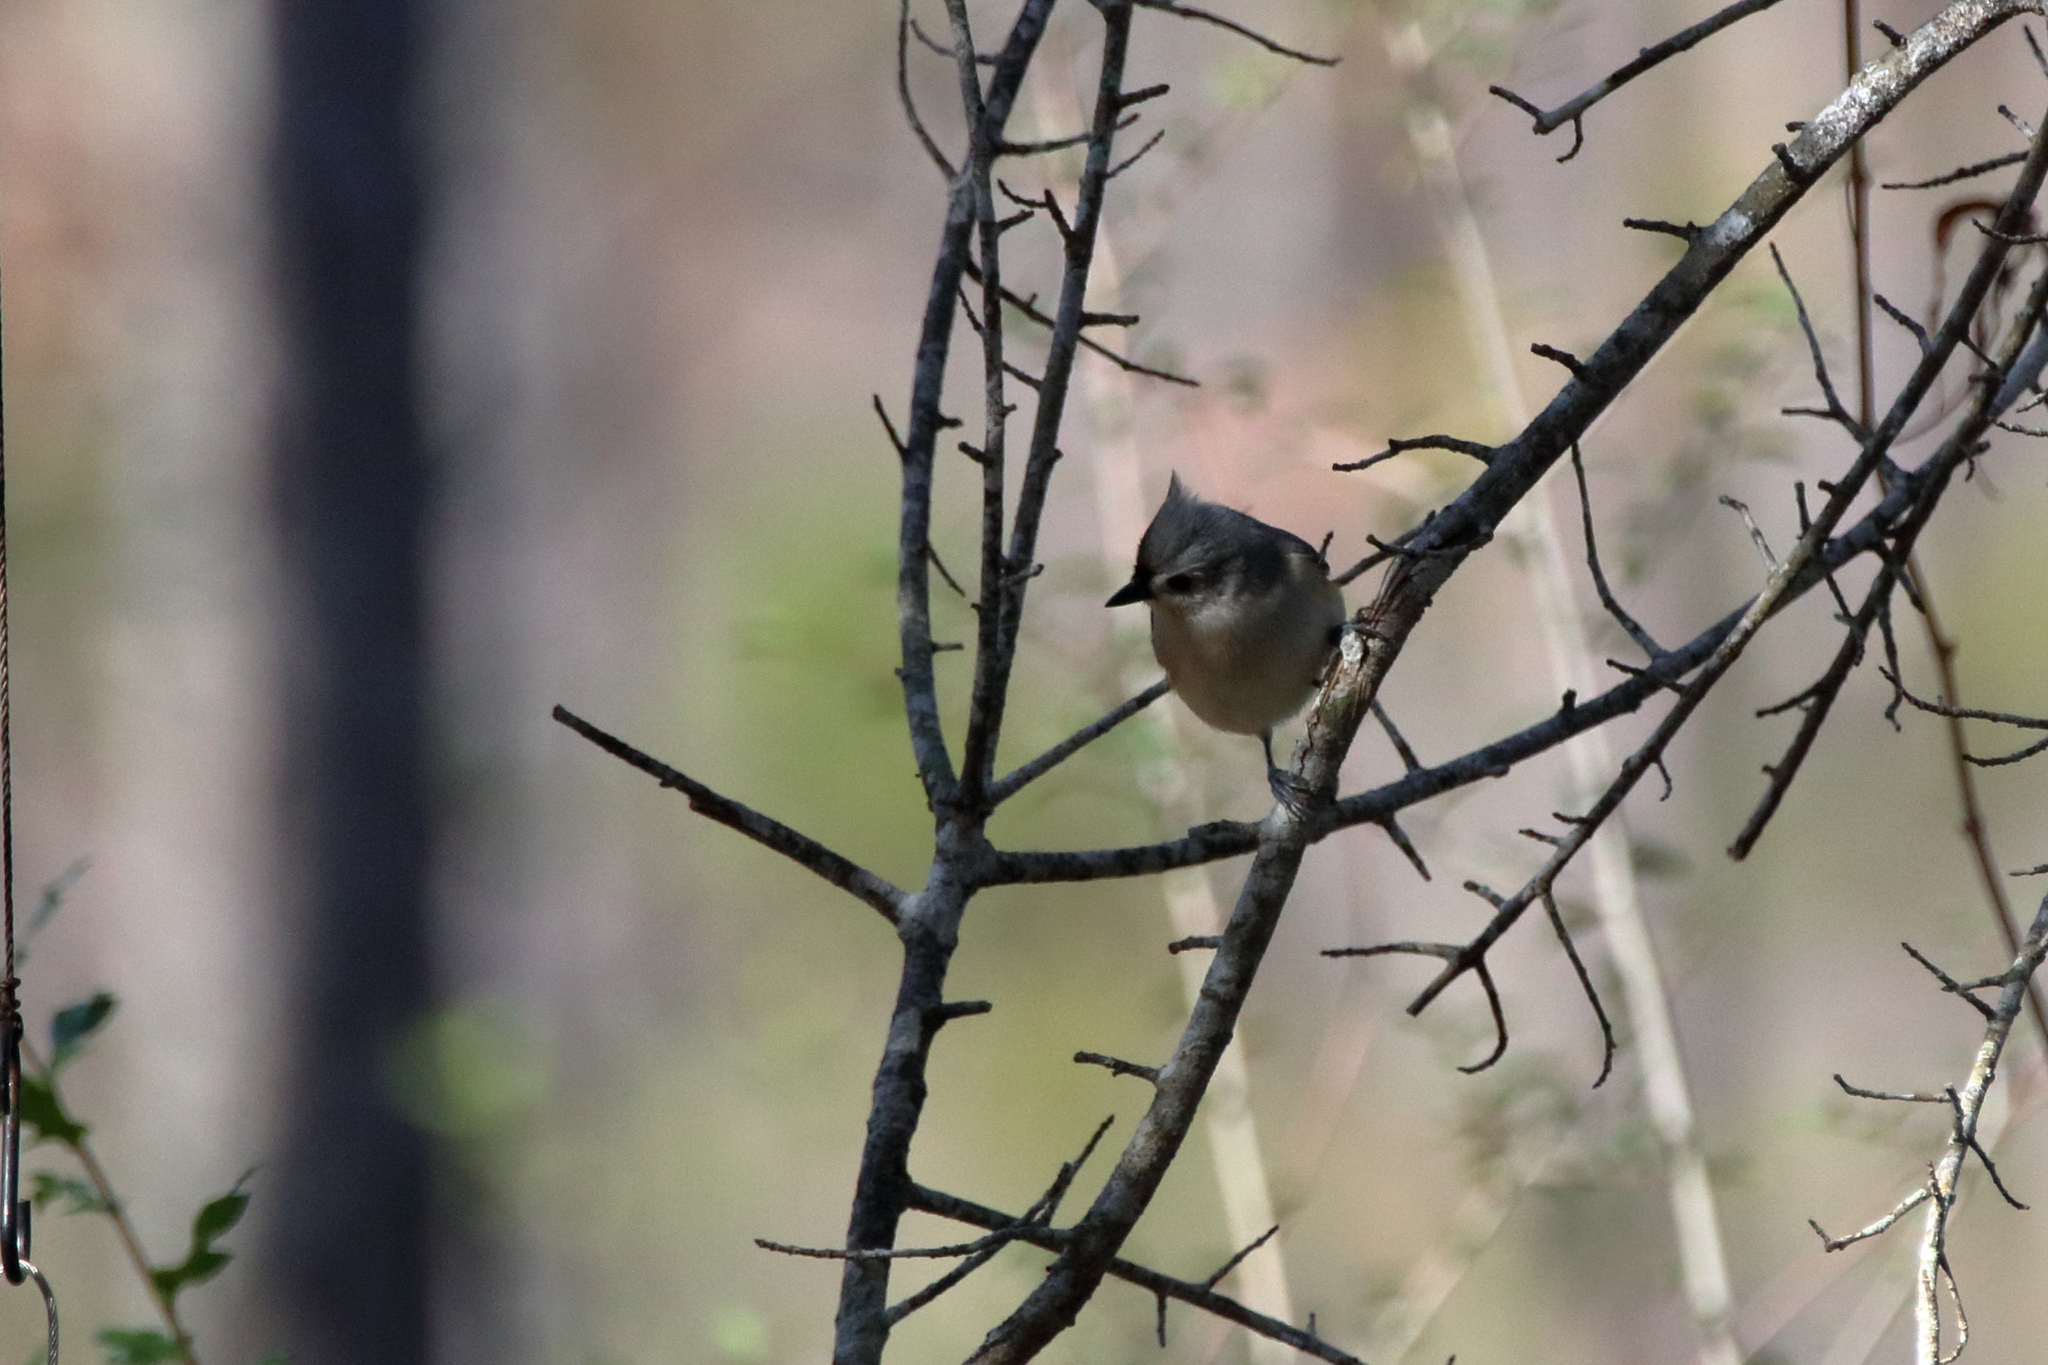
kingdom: Animalia
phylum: Chordata
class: Aves
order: Passeriformes
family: Paridae
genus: Baeolophus
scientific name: Baeolophus bicolor
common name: Tufted titmouse
